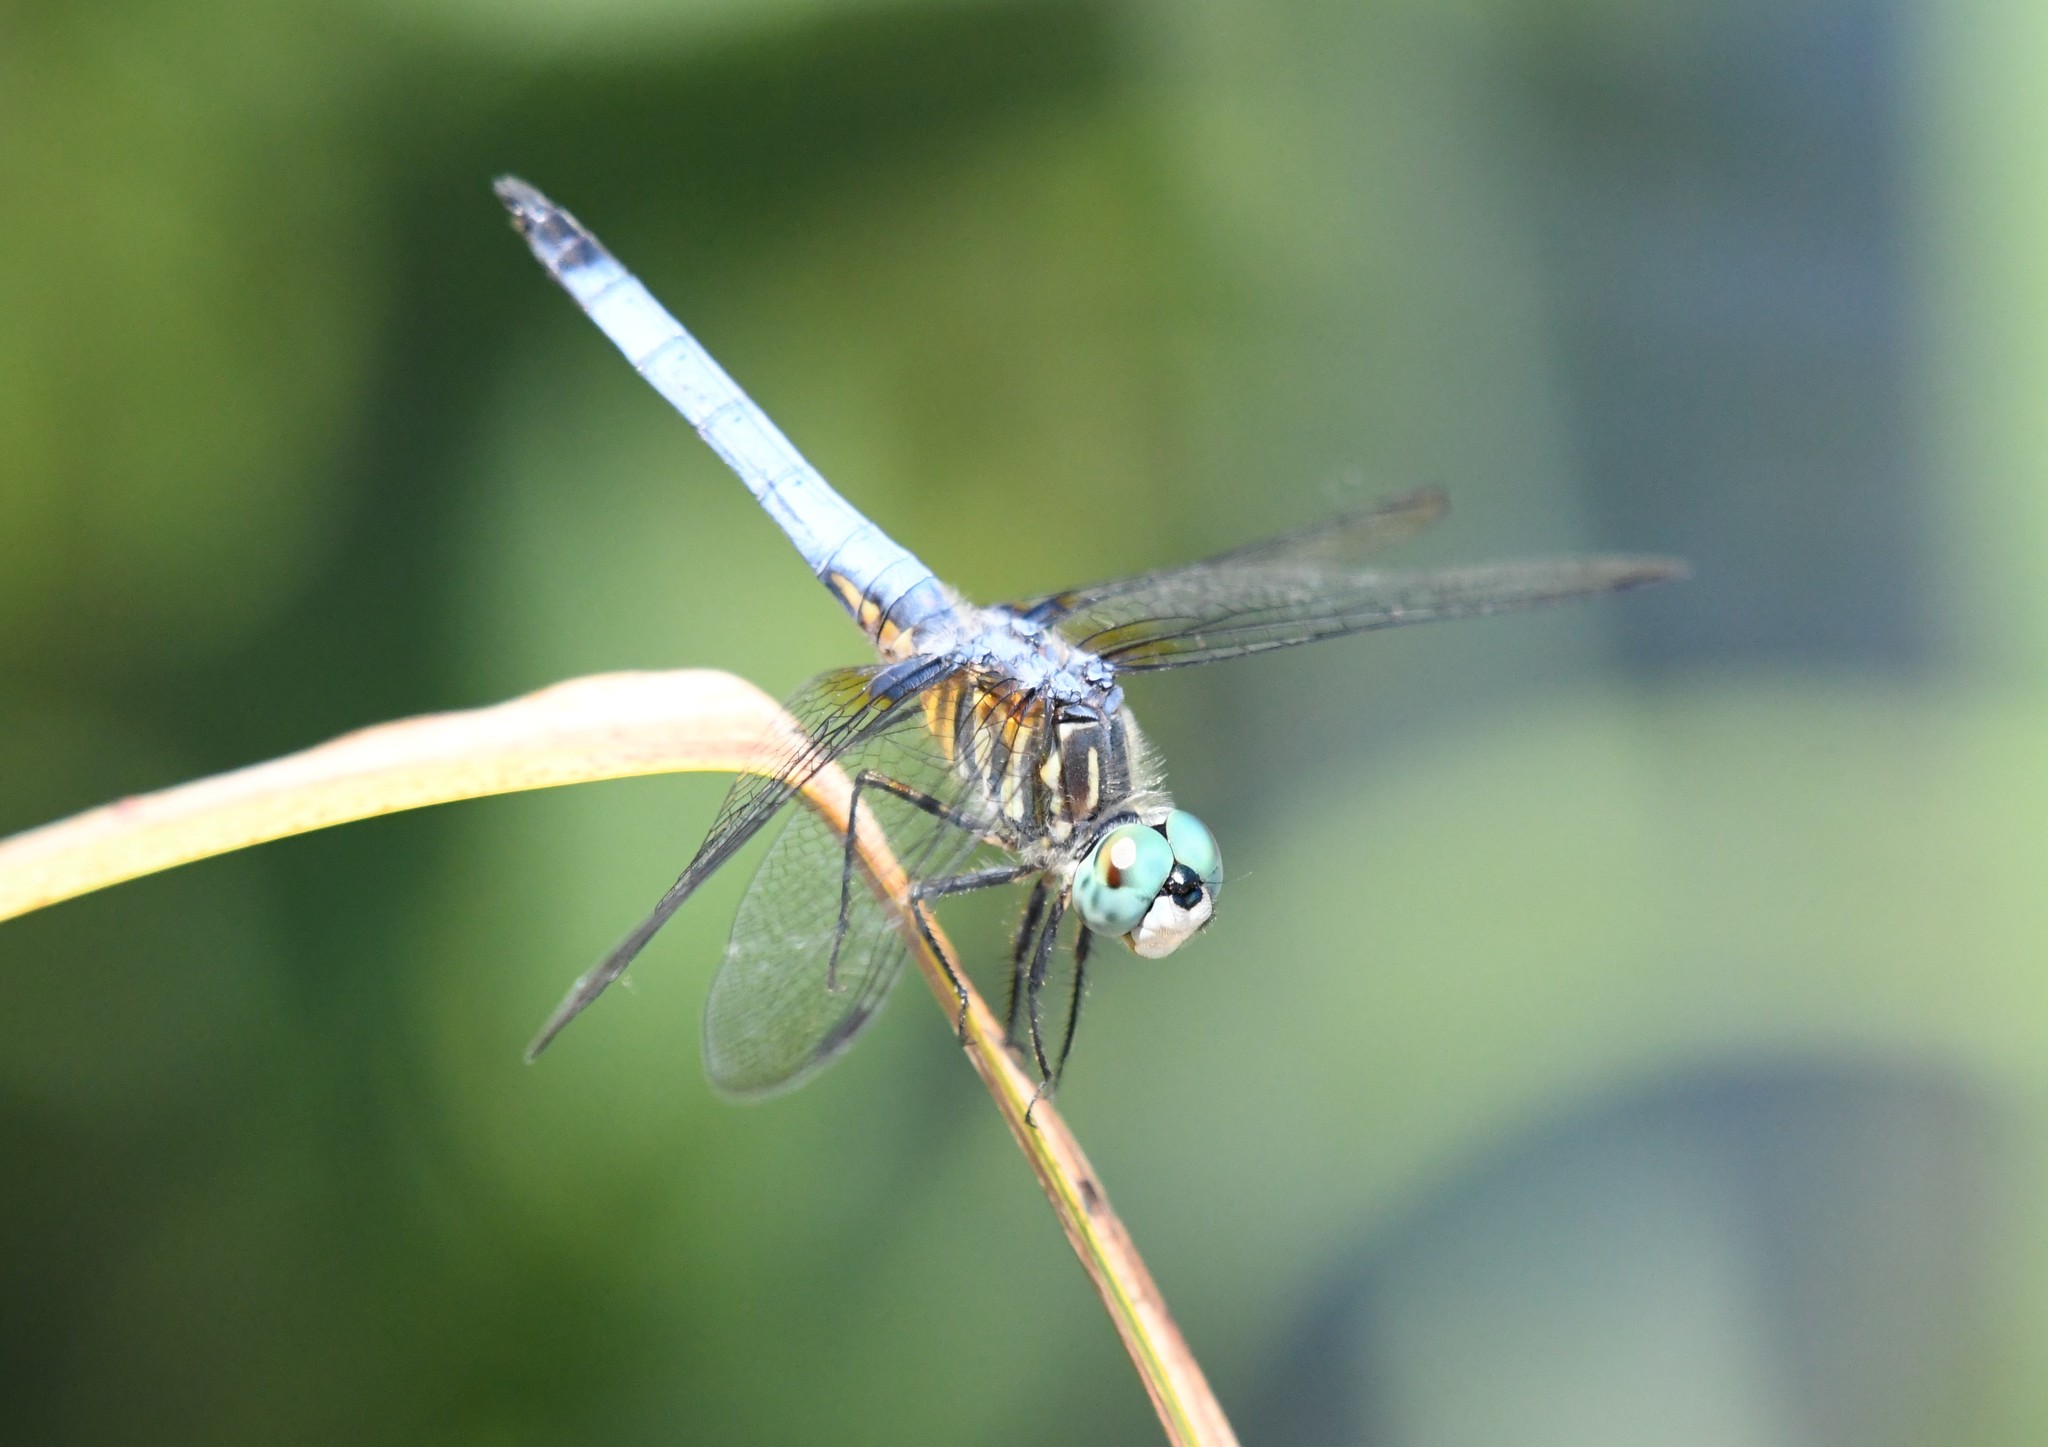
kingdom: Animalia
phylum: Arthropoda
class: Insecta
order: Odonata
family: Libellulidae
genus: Pachydiplax
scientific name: Pachydiplax longipennis
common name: Blue dasher
